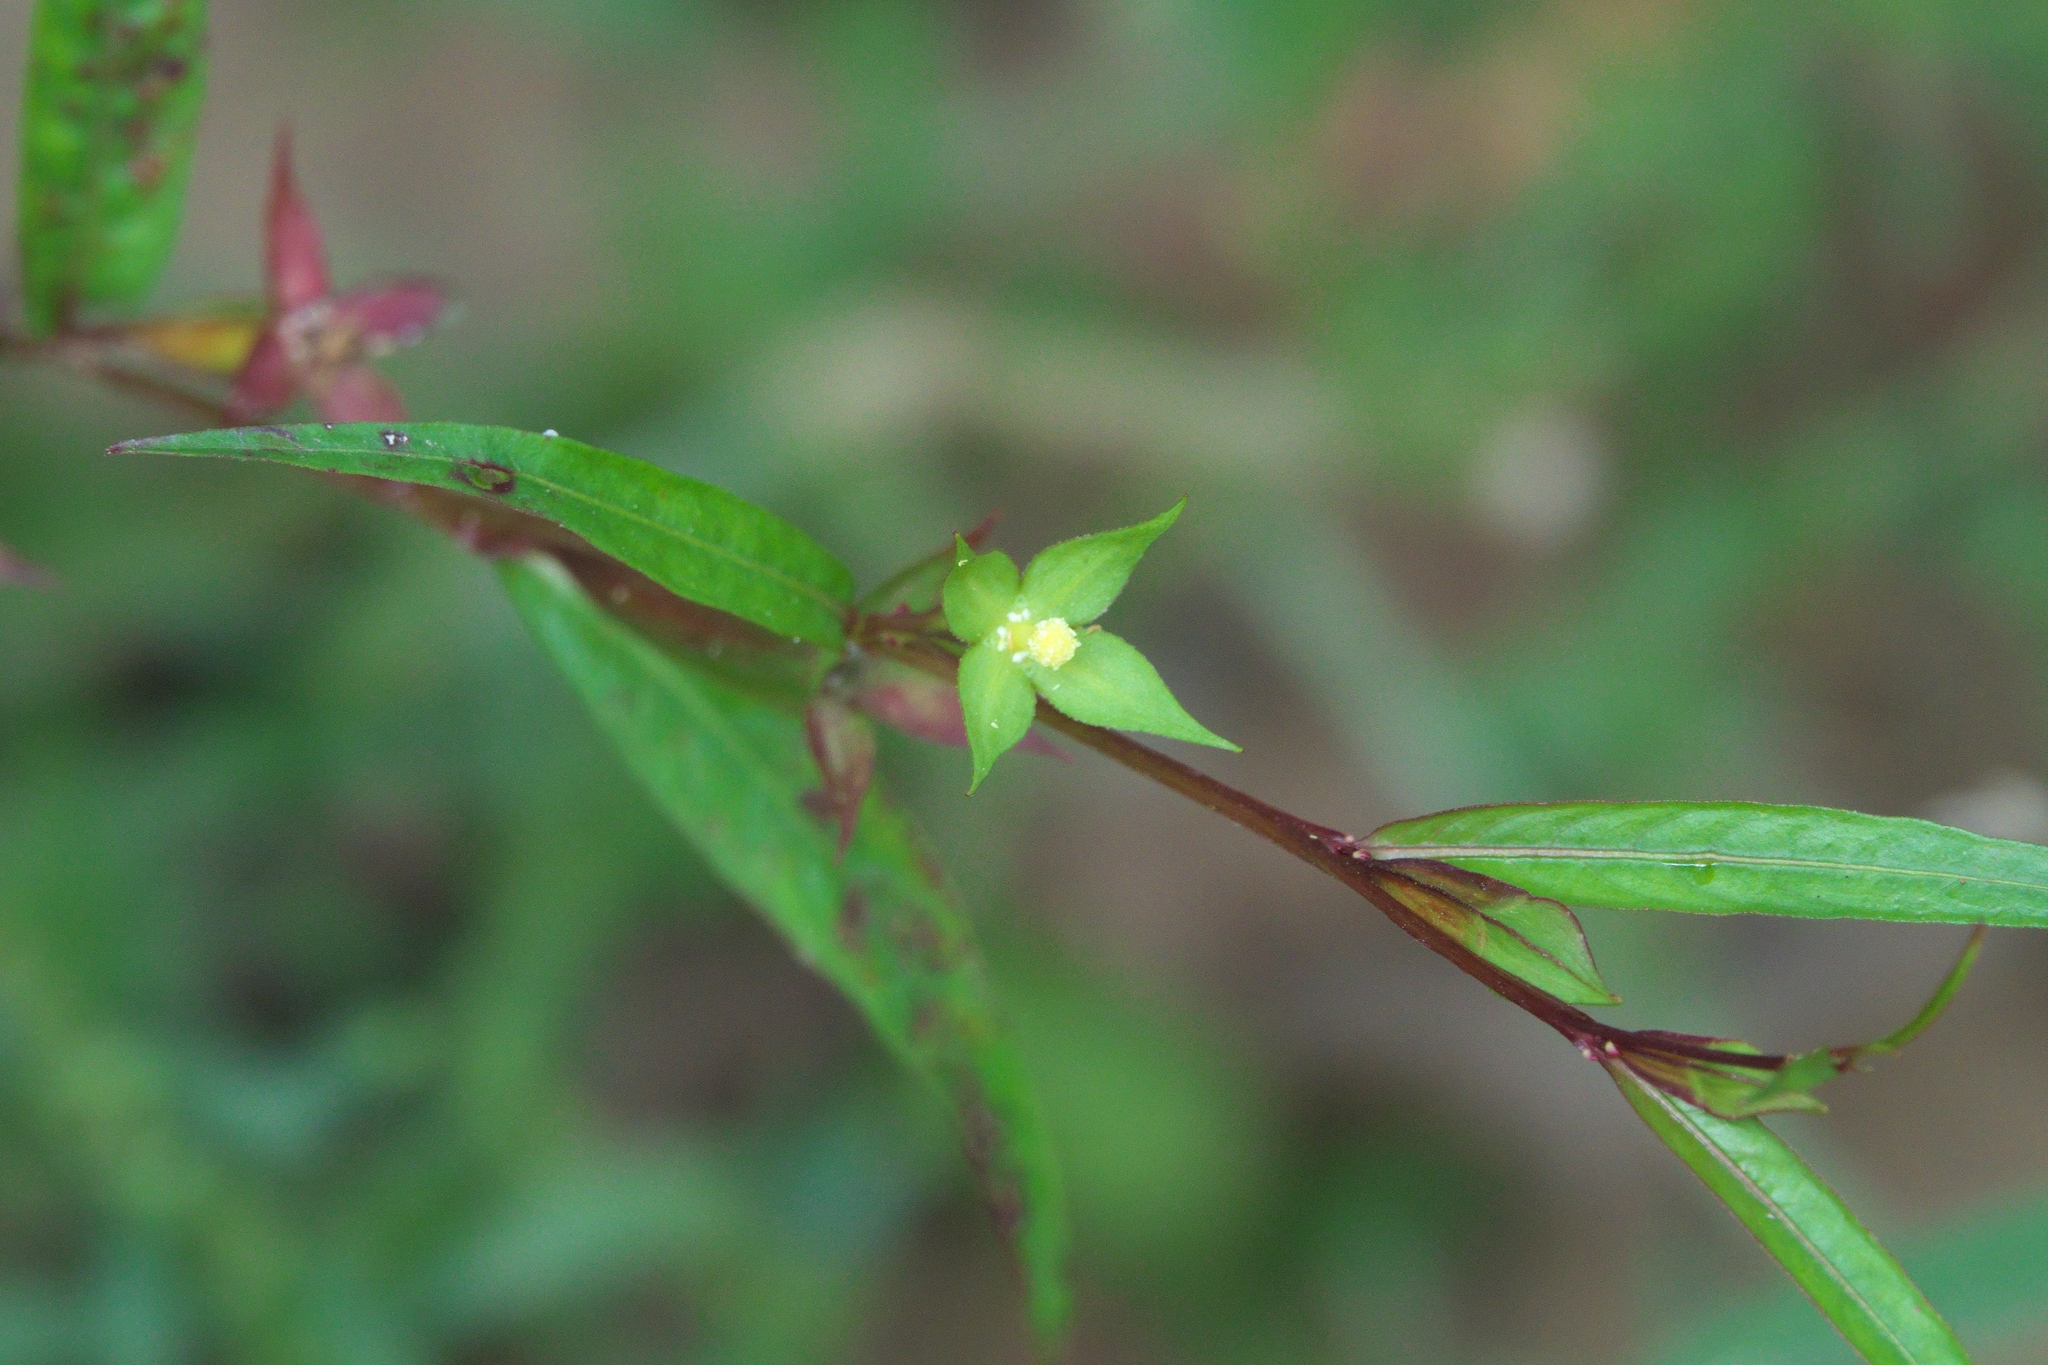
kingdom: Plantae
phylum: Tracheophyta
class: Magnoliopsida
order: Myrtales
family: Onagraceae
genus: Ludwigia
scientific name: Ludwigia decurrens
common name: Winged water-primrose
